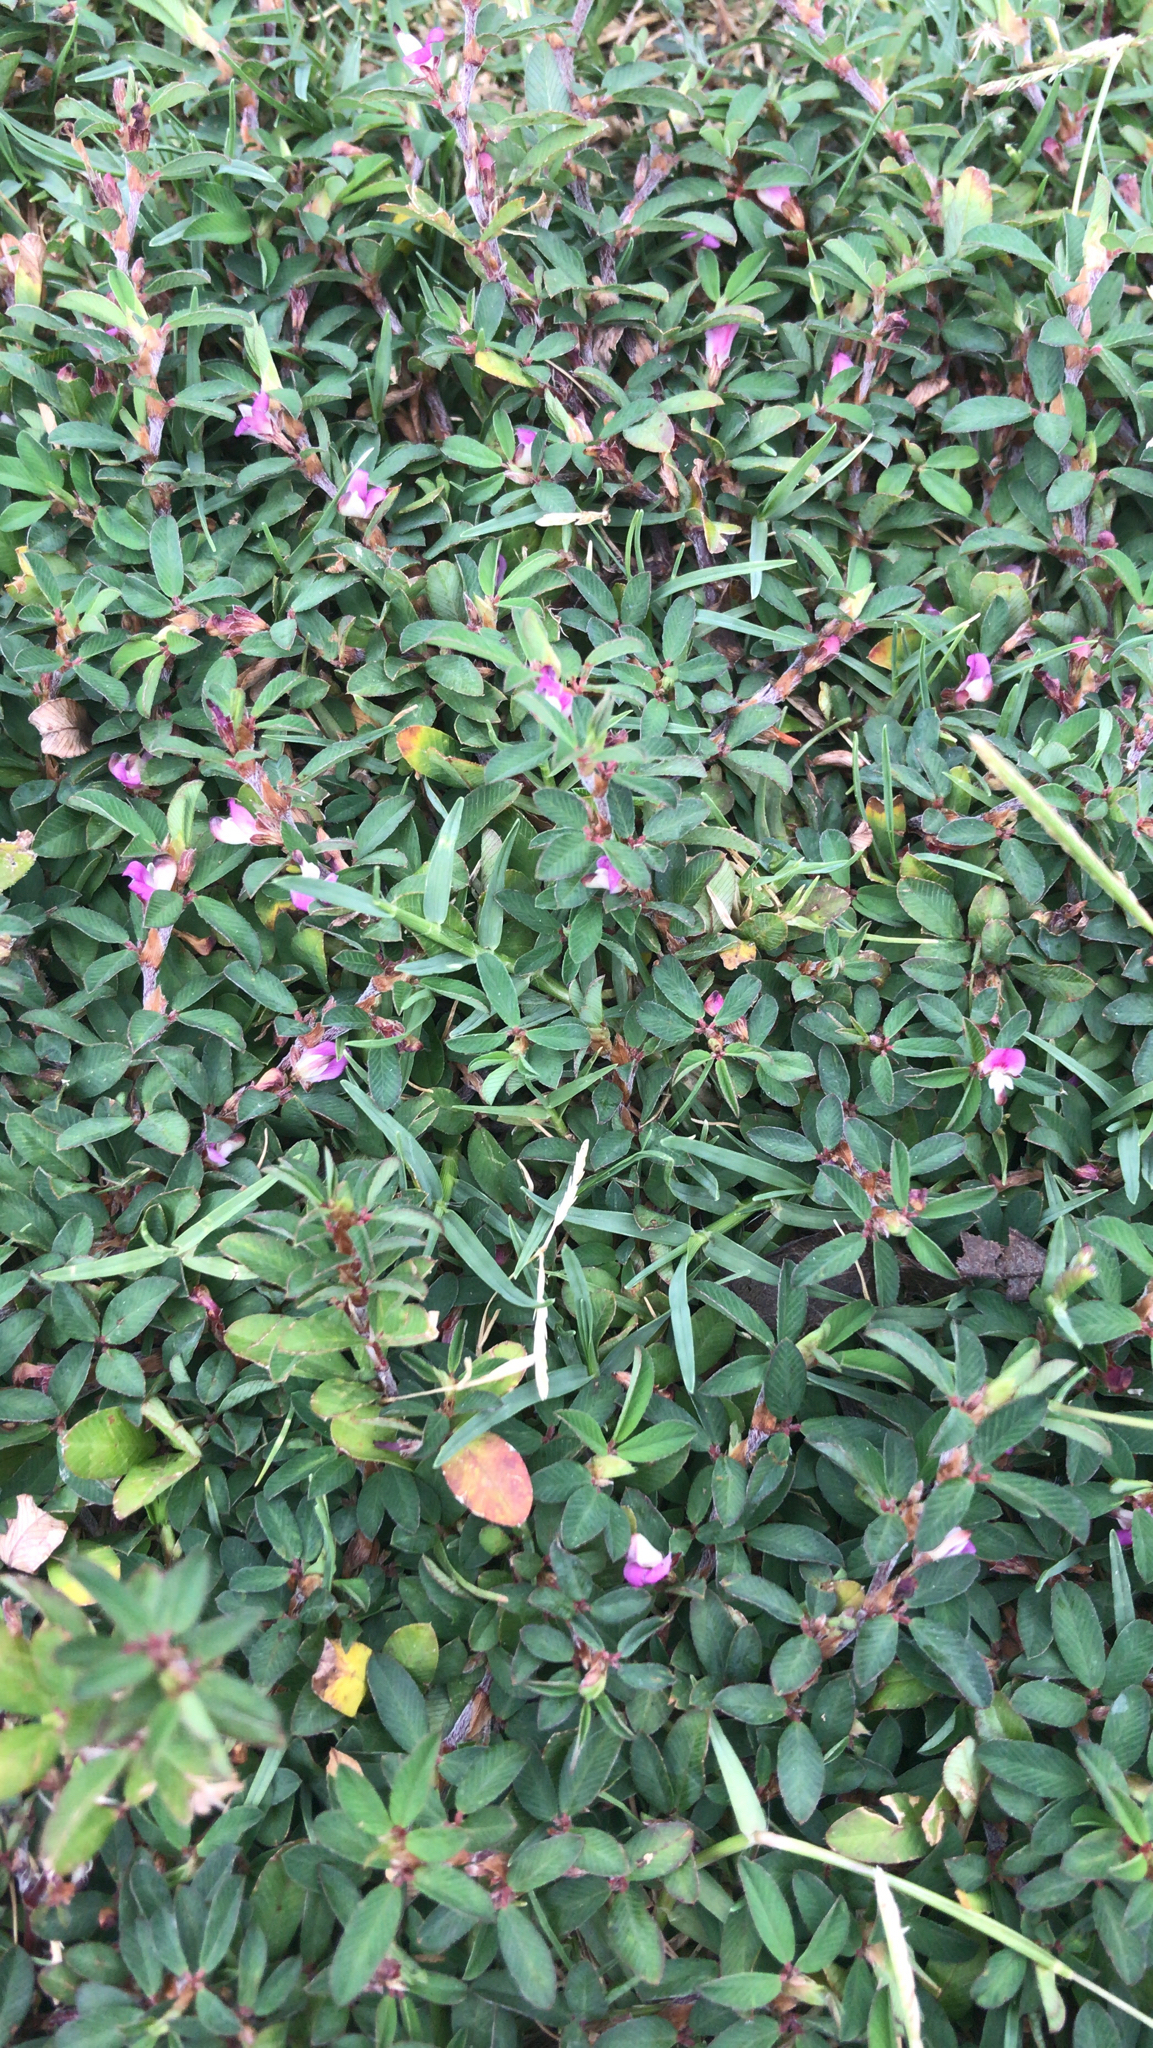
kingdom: Plantae
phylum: Tracheophyta
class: Magnoliopsida
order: Fabales
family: Fabaceae
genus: Kummerowia
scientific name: Kummerowia striata
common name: Japanese clover
